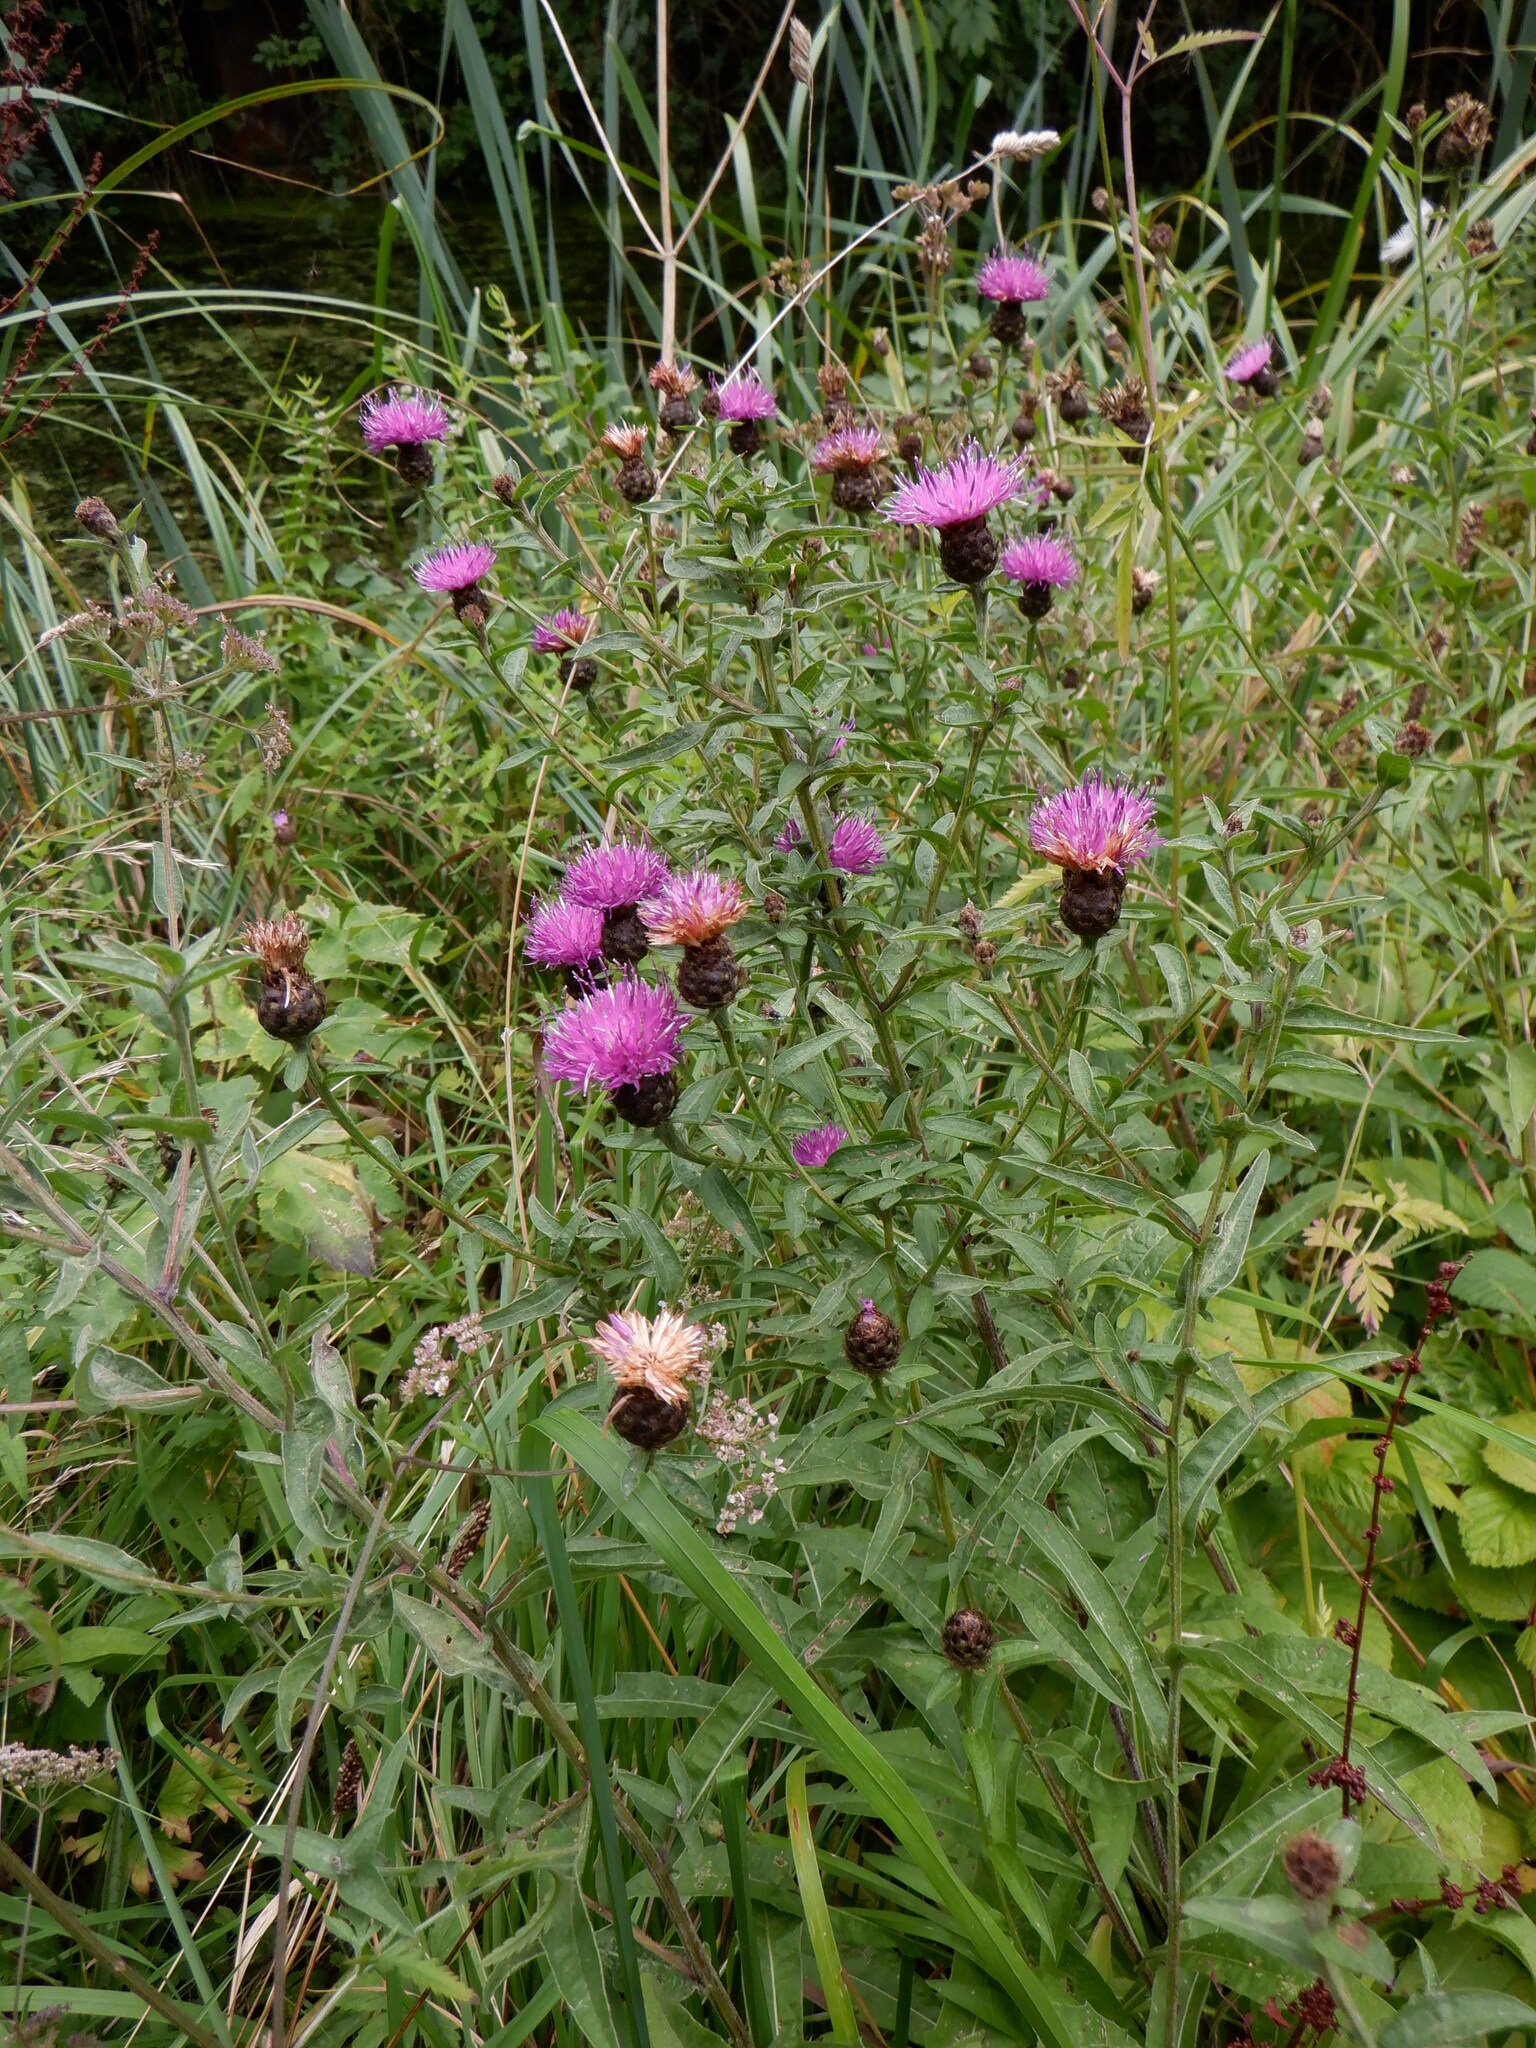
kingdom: Plantae
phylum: Tracheophyta
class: Magnoliopsida
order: Asterales
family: Asteraceae
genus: Centaurea
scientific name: Centaurea nigra
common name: Lesser knapweed
